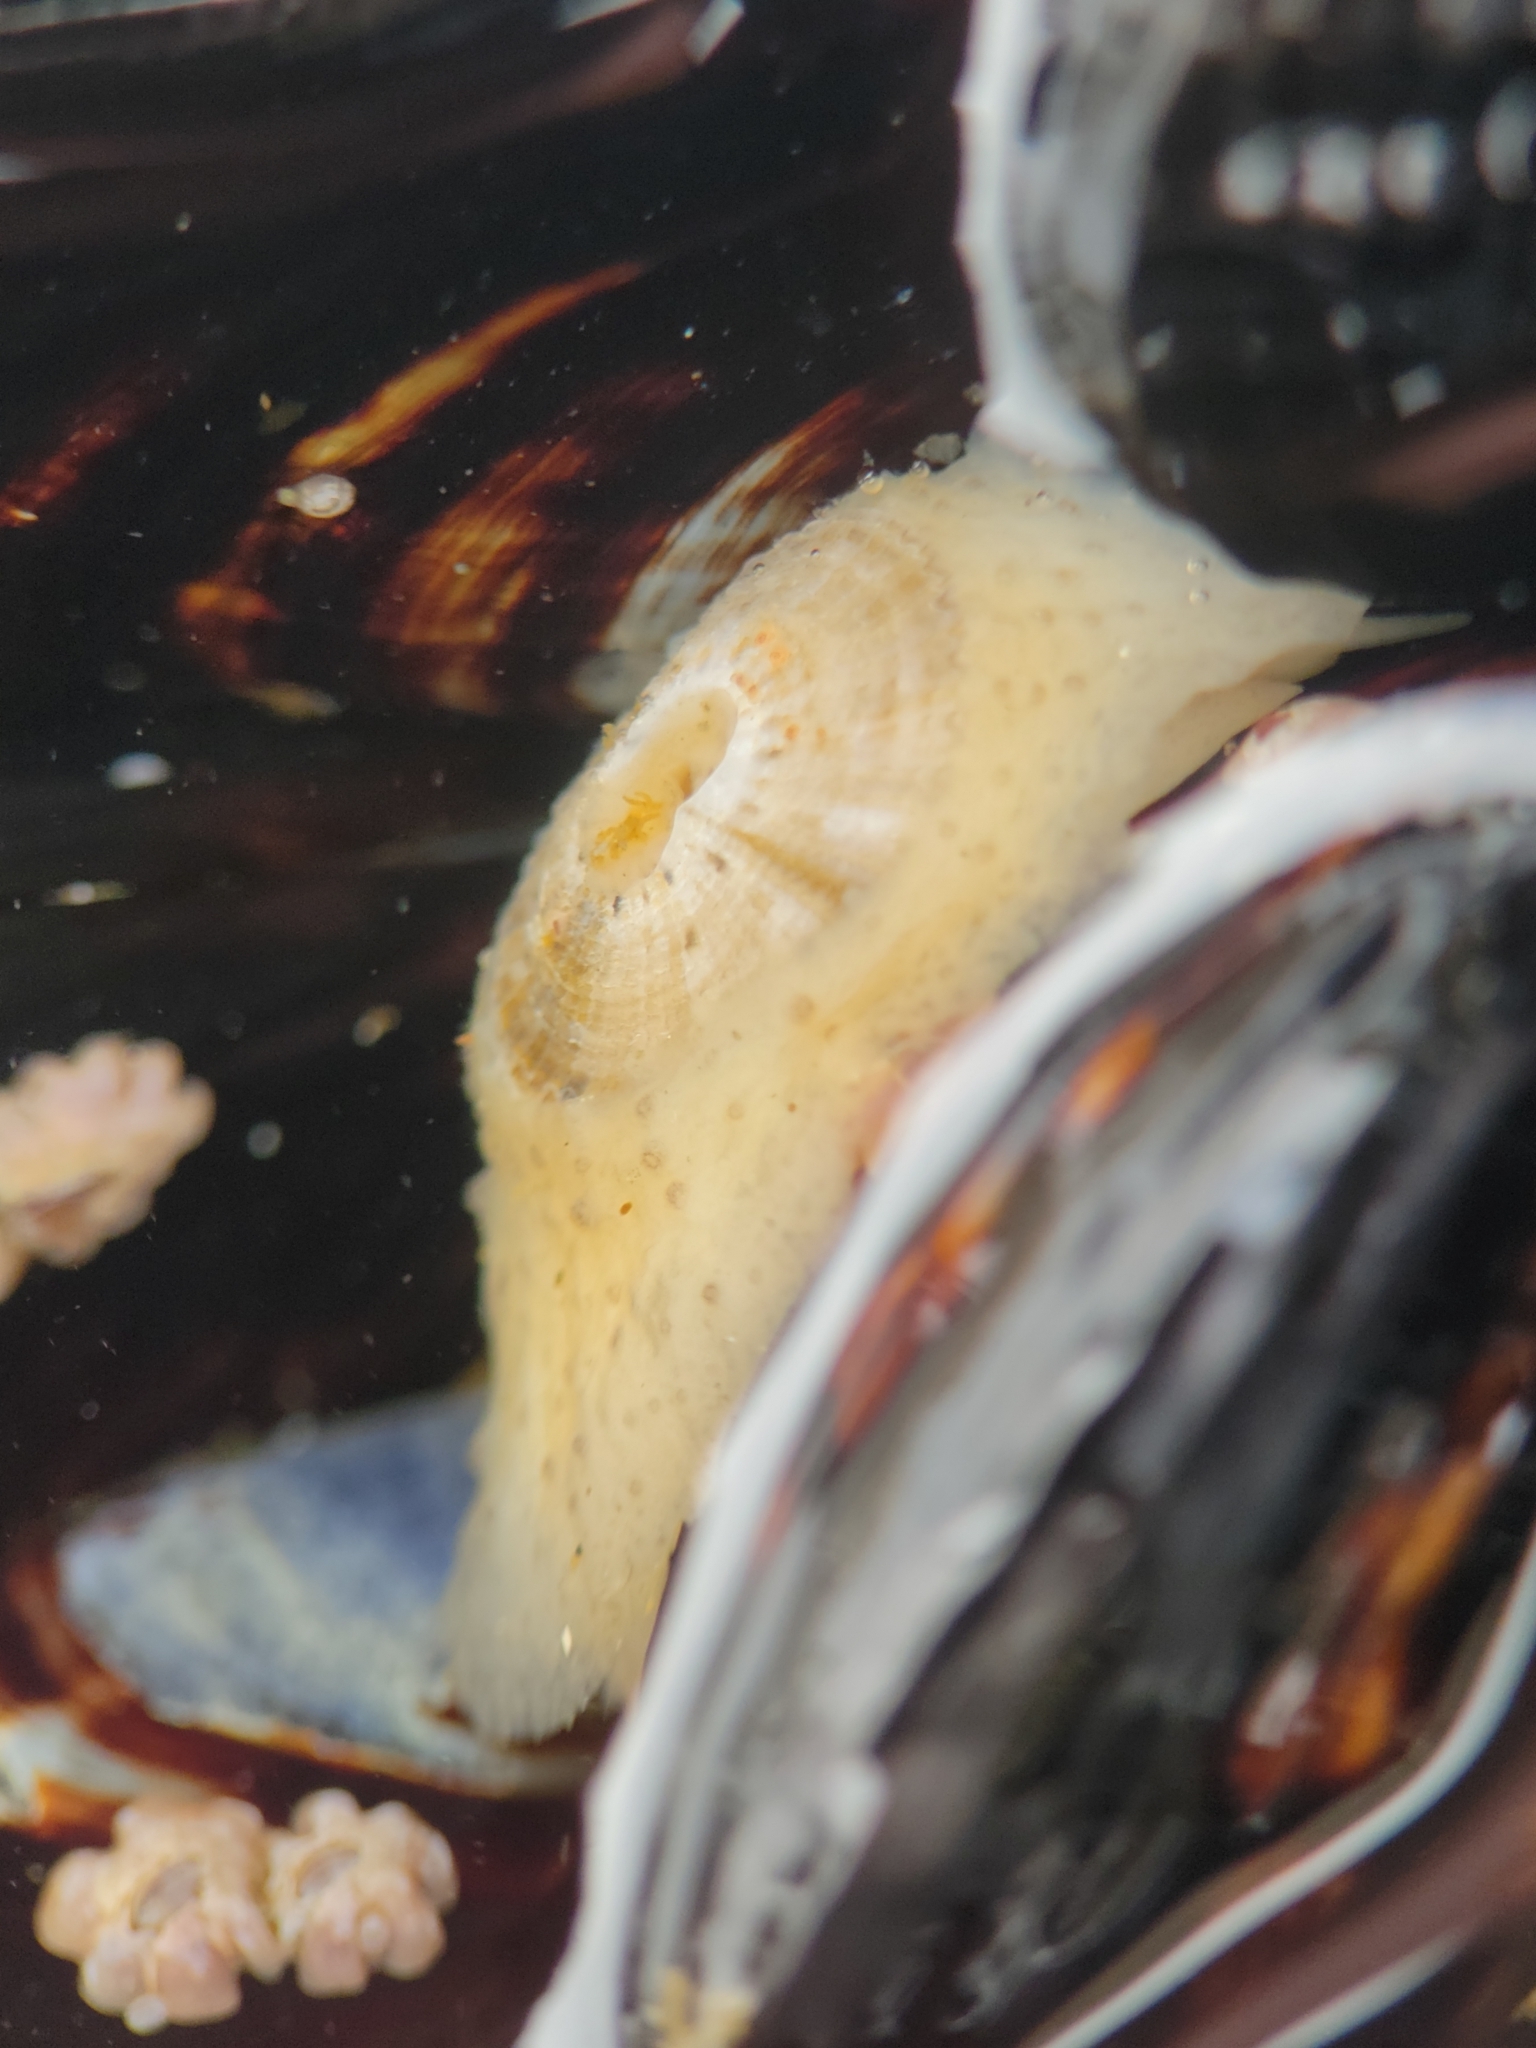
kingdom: Animalia
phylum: Mollusca
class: Gastropoda
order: Lepetellida
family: Fissurellidae
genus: Fissurellidea
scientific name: Fissurellidea bimaculata
